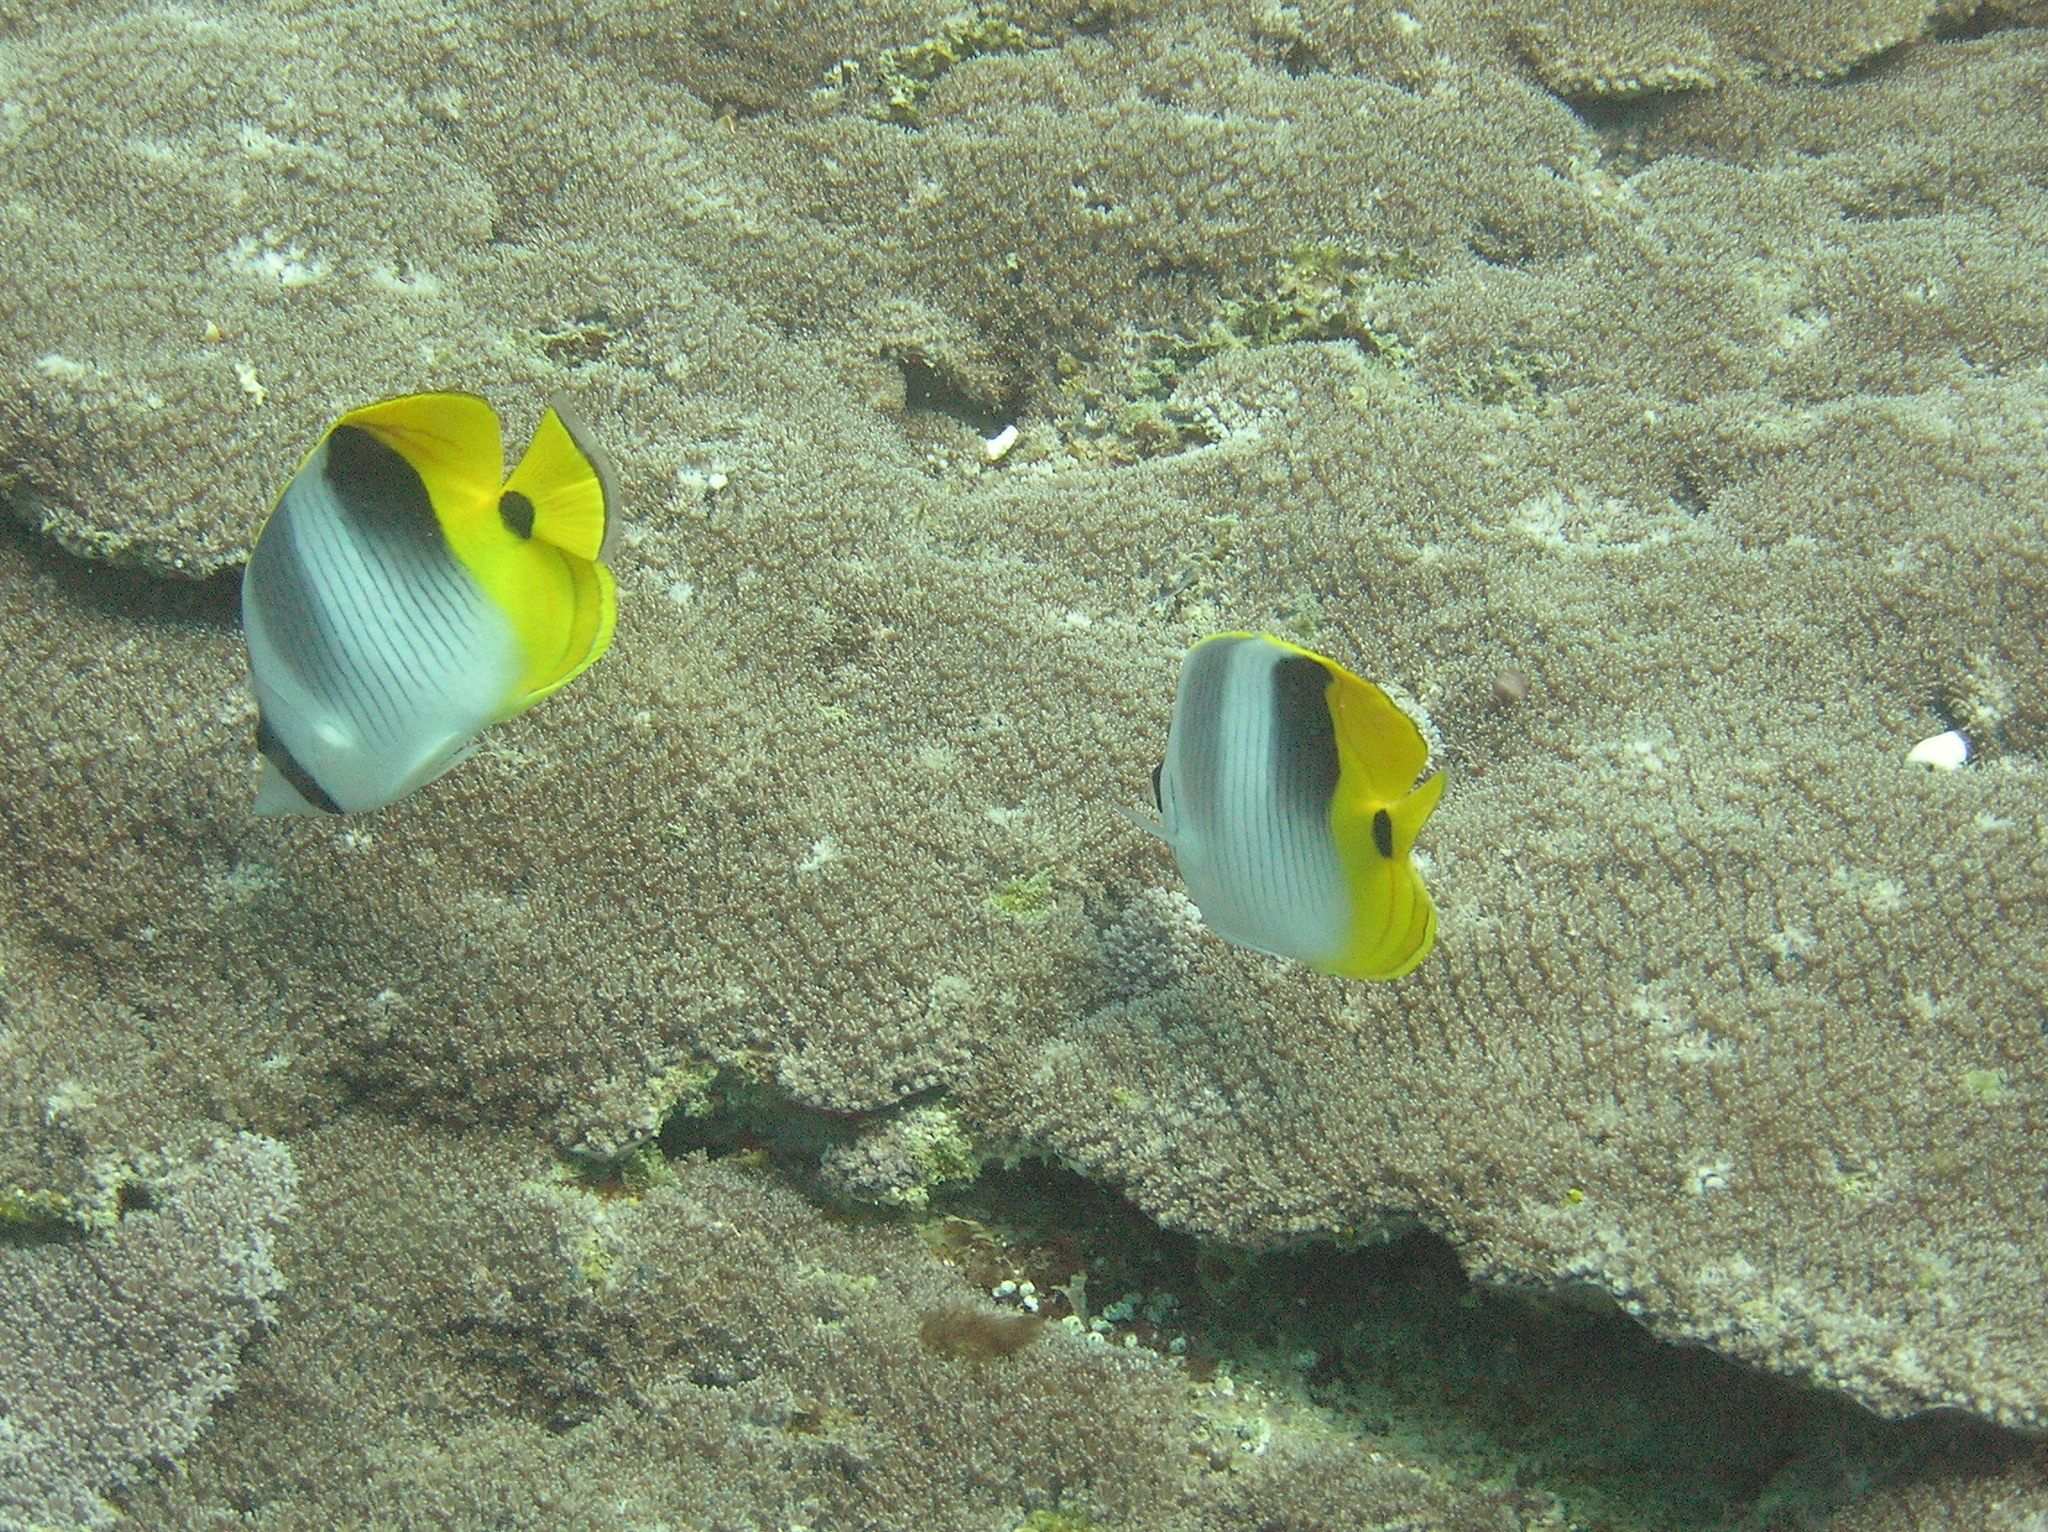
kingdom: Animalia
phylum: Chordata
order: Perciformes
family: Chaetodontidae
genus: Chaetodon
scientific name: Chaetodon ulietensis
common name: Pacific double-saddle butterflyfish
